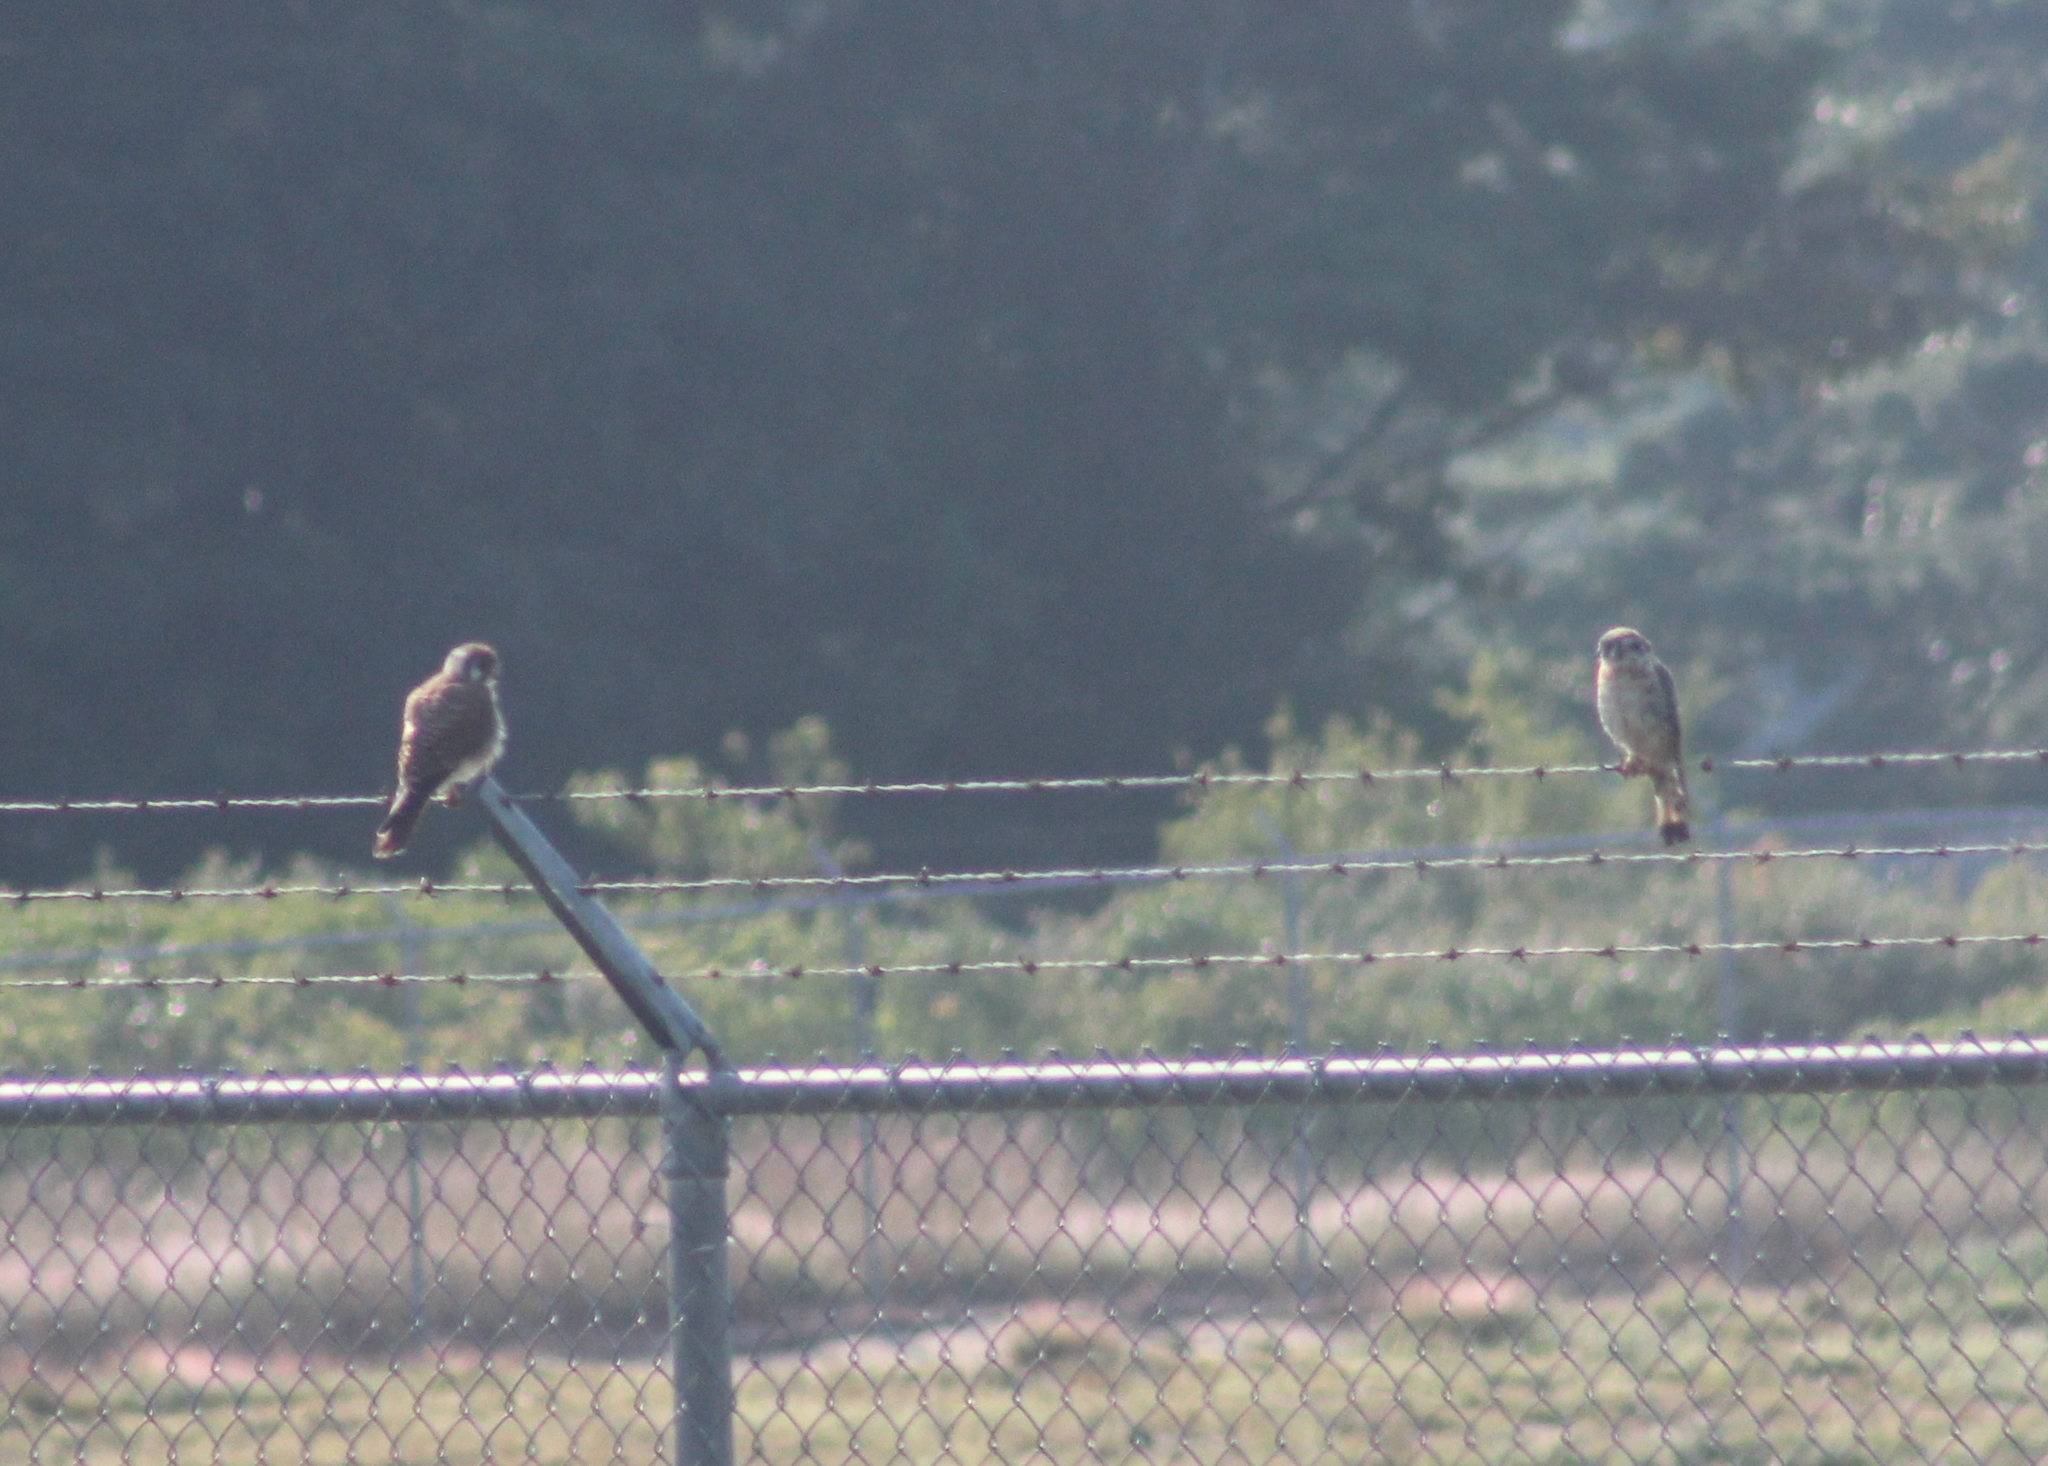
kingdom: Animalia
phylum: Chordata
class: Aves
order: Falconiformes
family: Falconidae
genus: Falco
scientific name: Falco sparverius
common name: American kestrel
